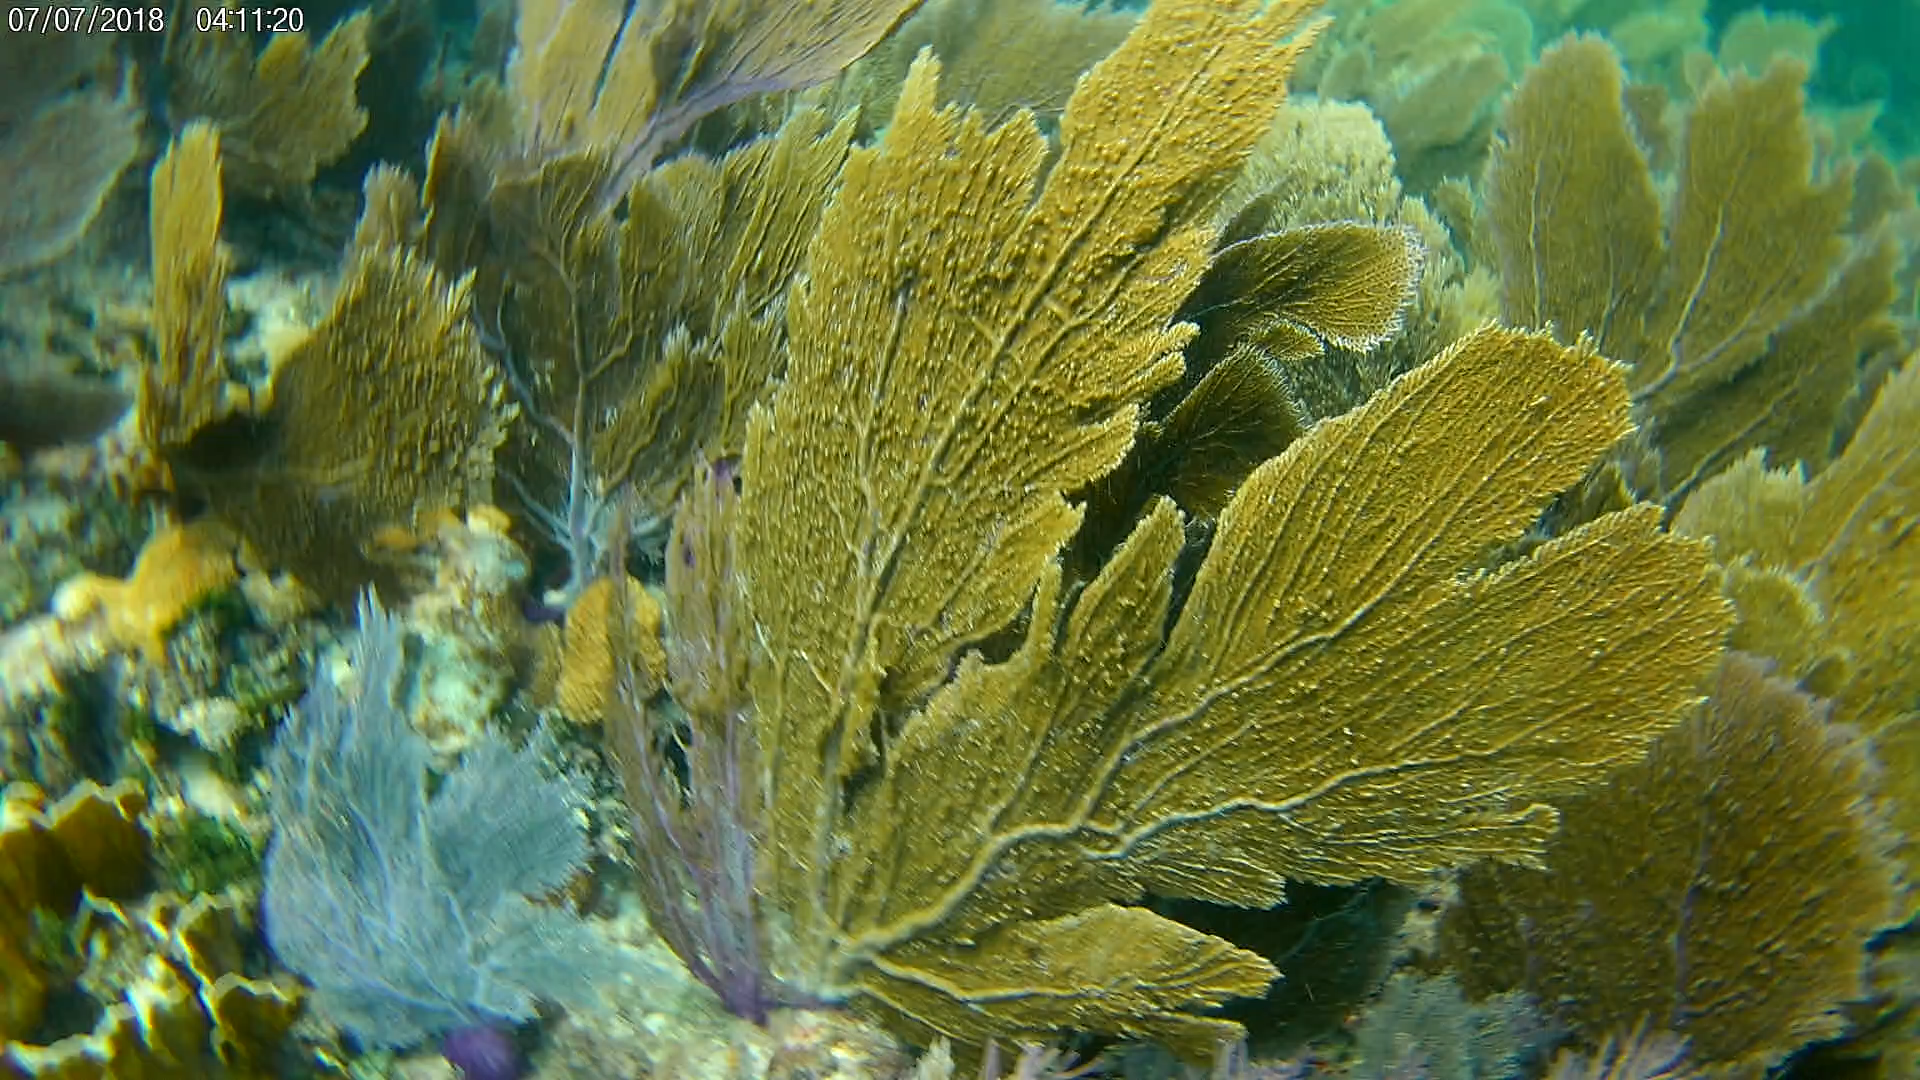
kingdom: Animalia
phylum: Cnidaria
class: Anthozoa
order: Malacalcyonacea
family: Gorgoniidae
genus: Gorgonia
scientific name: Gorgonia ventalina
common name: Common sea fan
